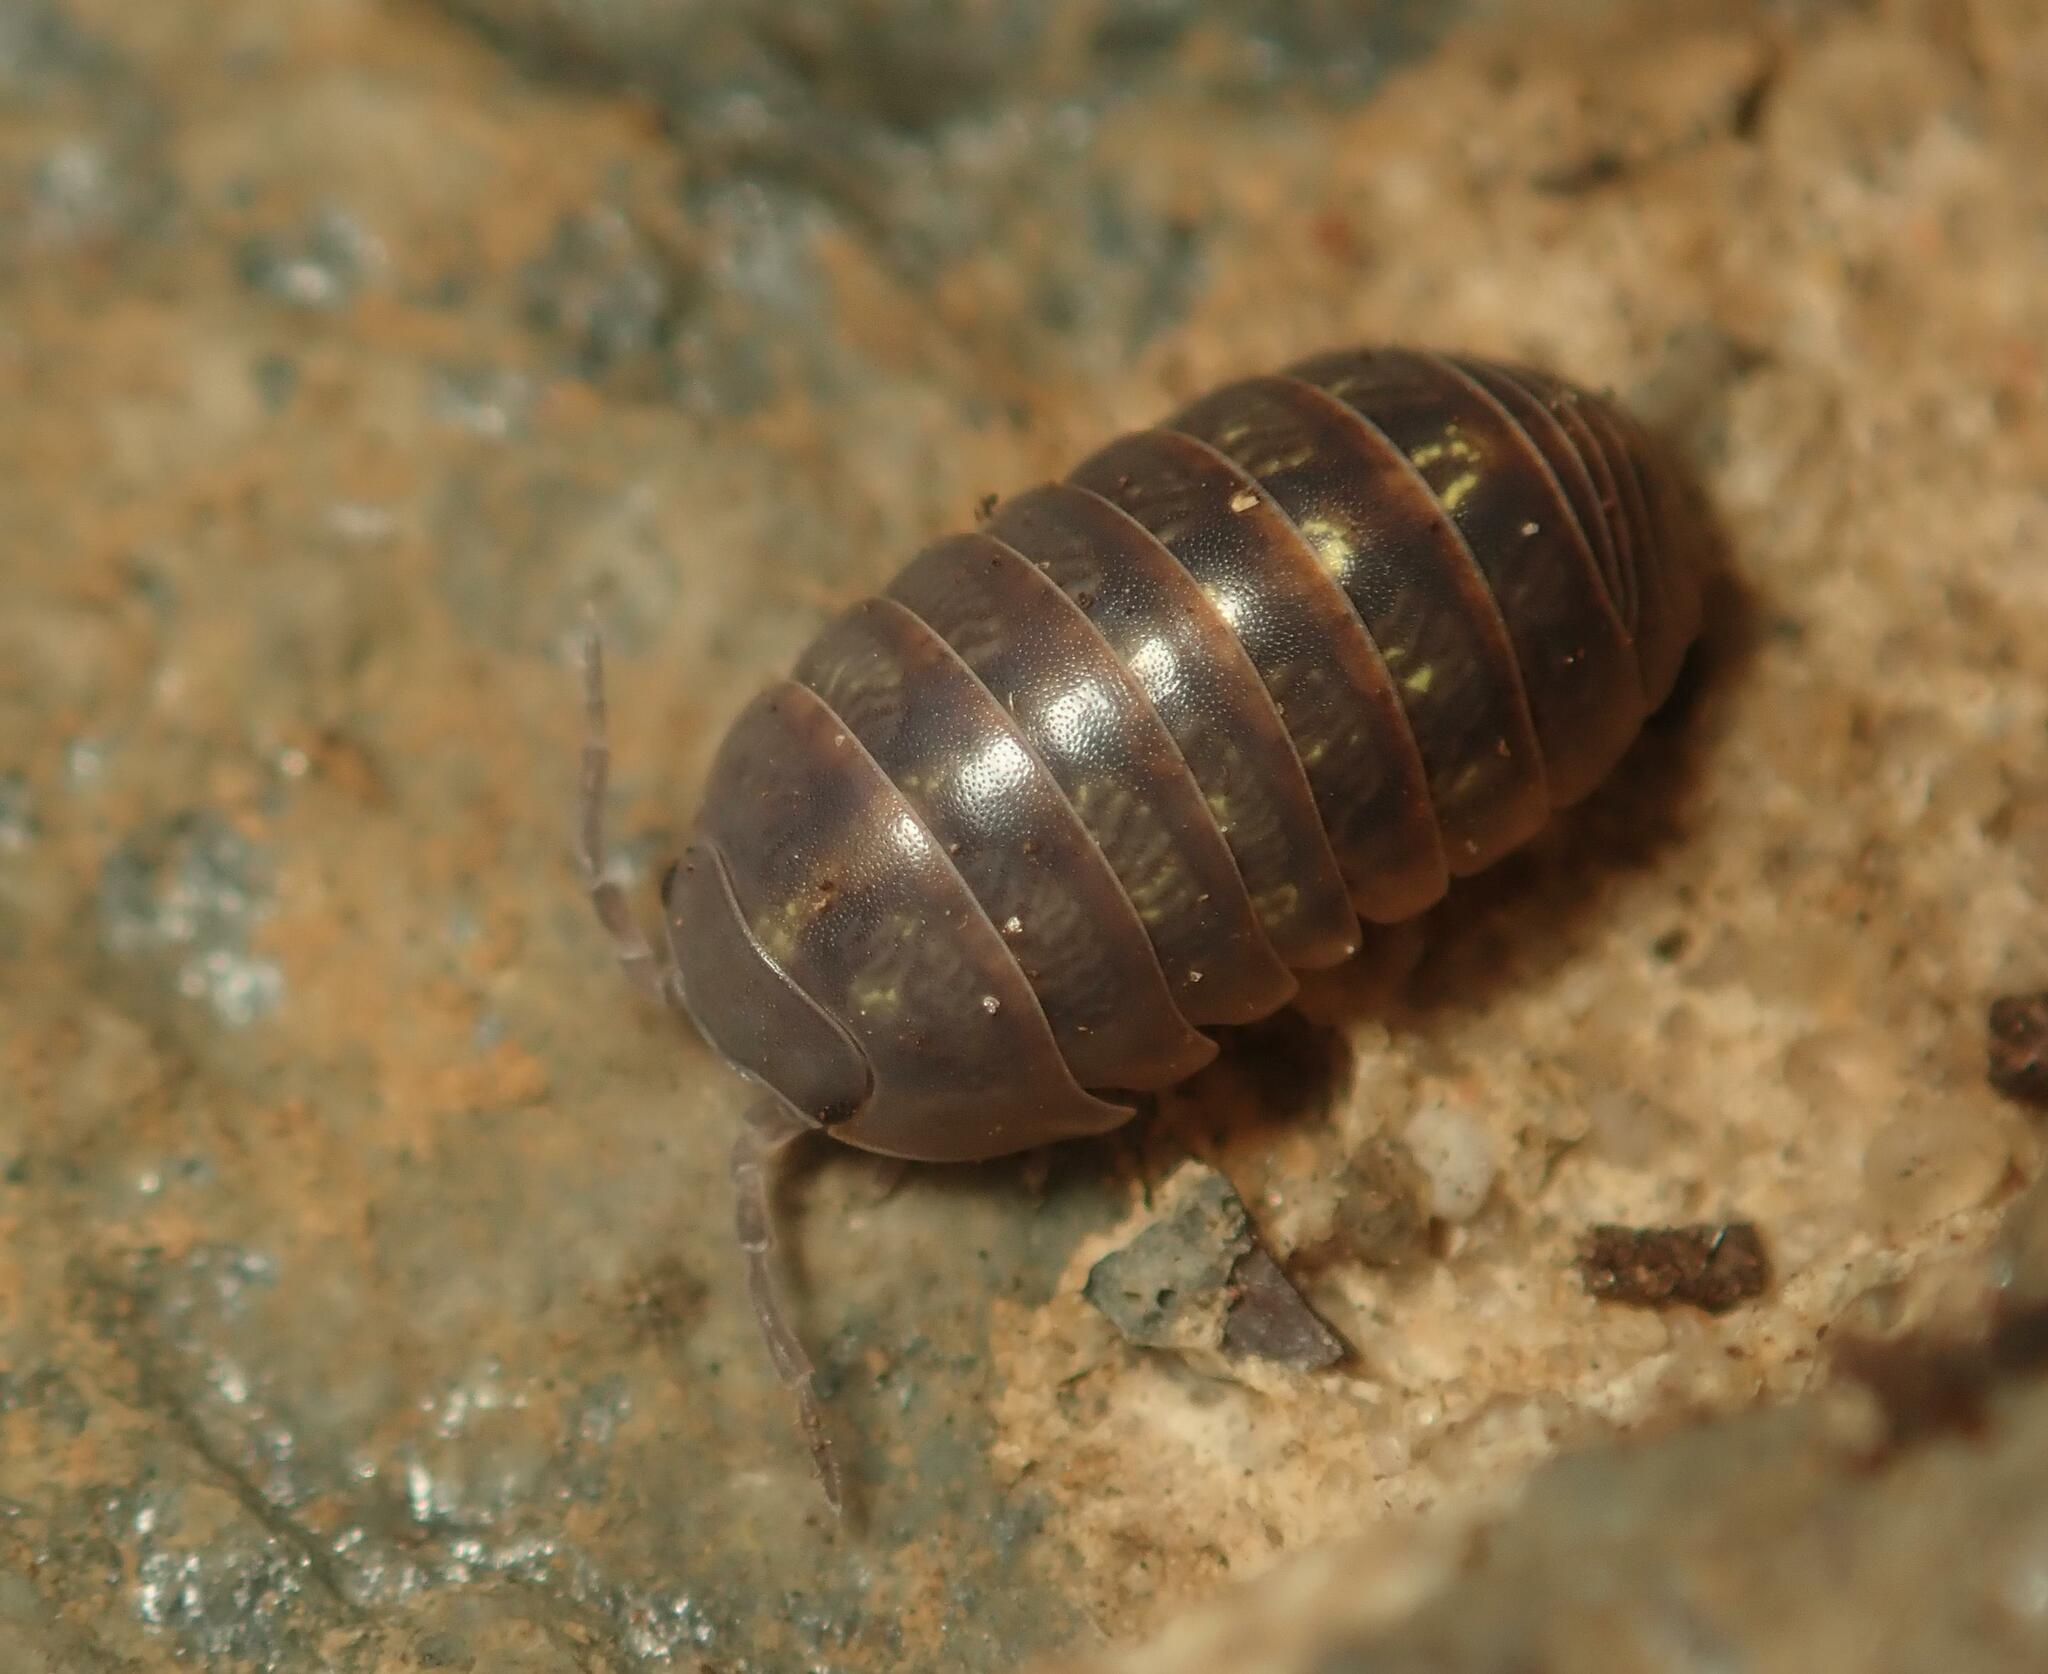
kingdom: Animalia
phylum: Arthropoda
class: Malacostraca
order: Isopoda
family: Armadillidiidae
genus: Armadillidium
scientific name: Armadillidium vulgare
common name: Common pill woodlouse
